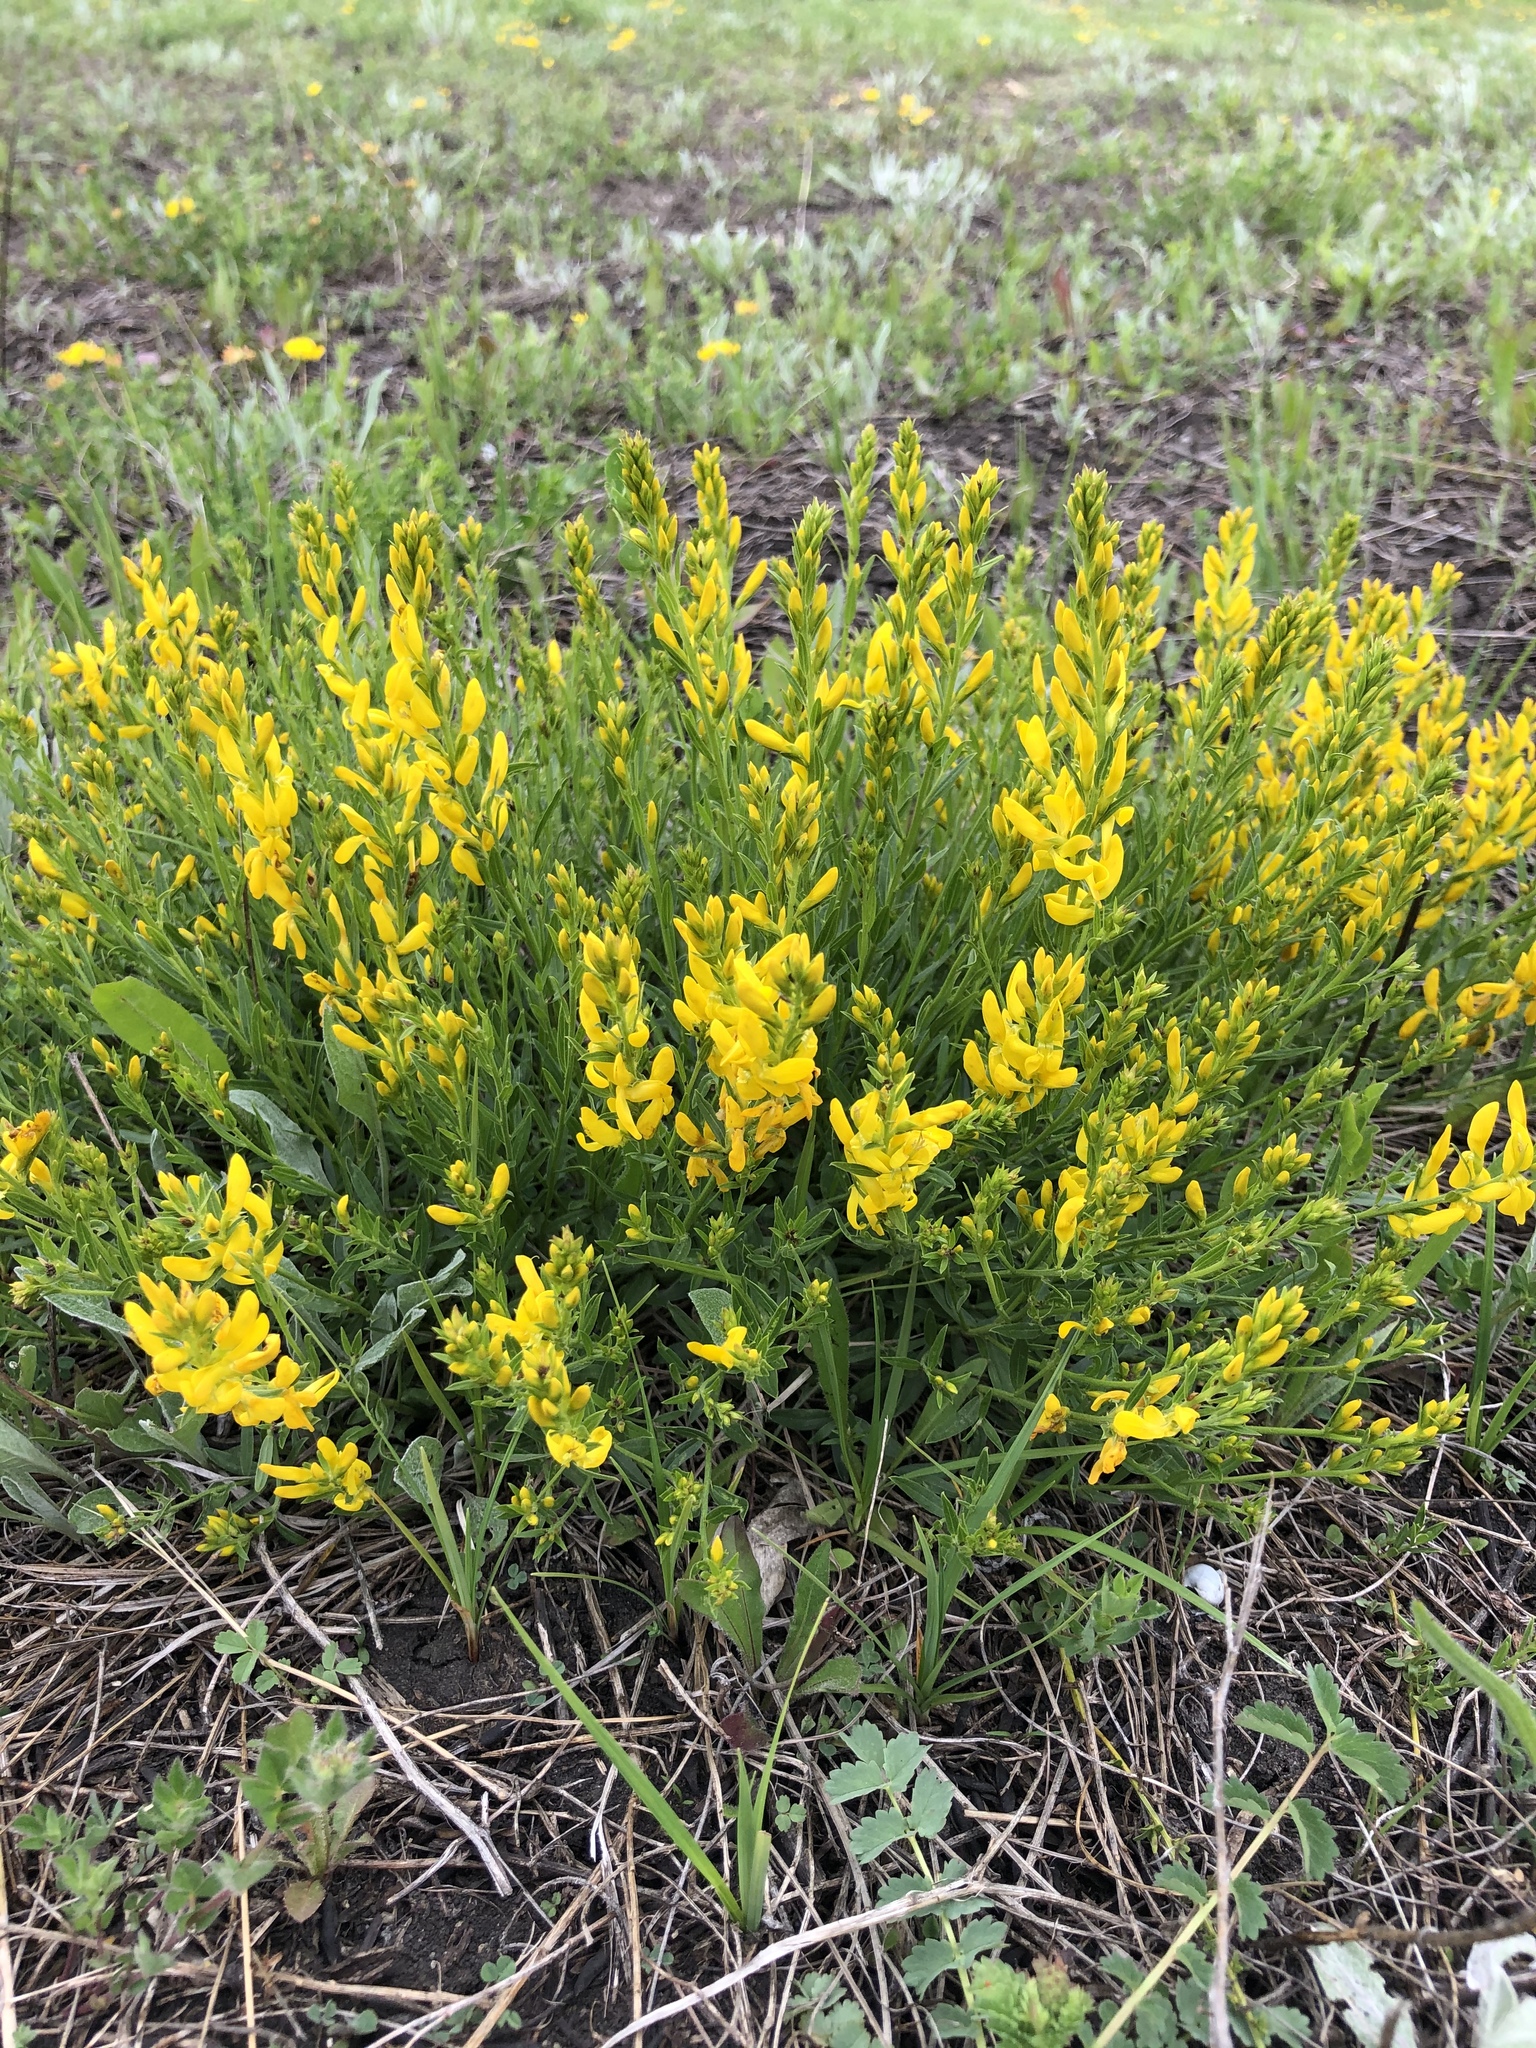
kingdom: Plantae
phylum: Tracheophyta
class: Magnoliopsida
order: Fabales
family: Fabaceae
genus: Genista
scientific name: Genista tinctoria
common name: Dyer's greenweed
